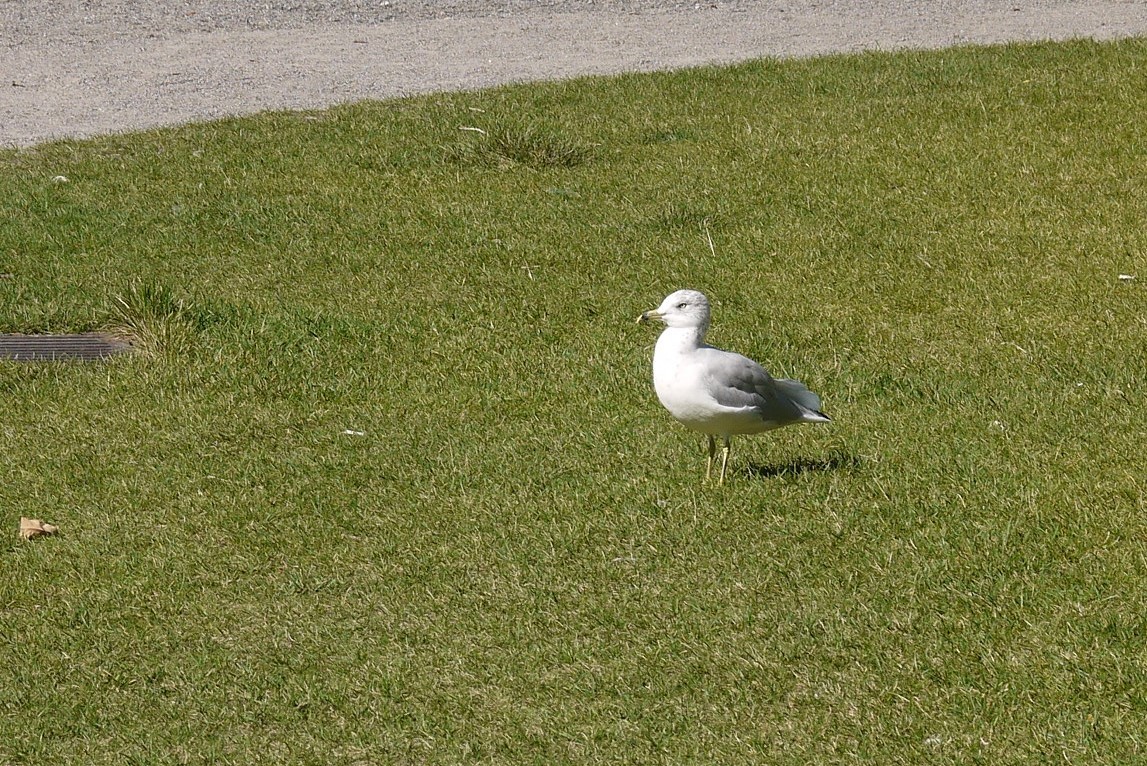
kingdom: Animalia
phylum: Chordata
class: Aves
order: Charadriiformes
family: Laridae
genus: Larus
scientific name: Larus delawarensis
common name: Ring-billed gull
